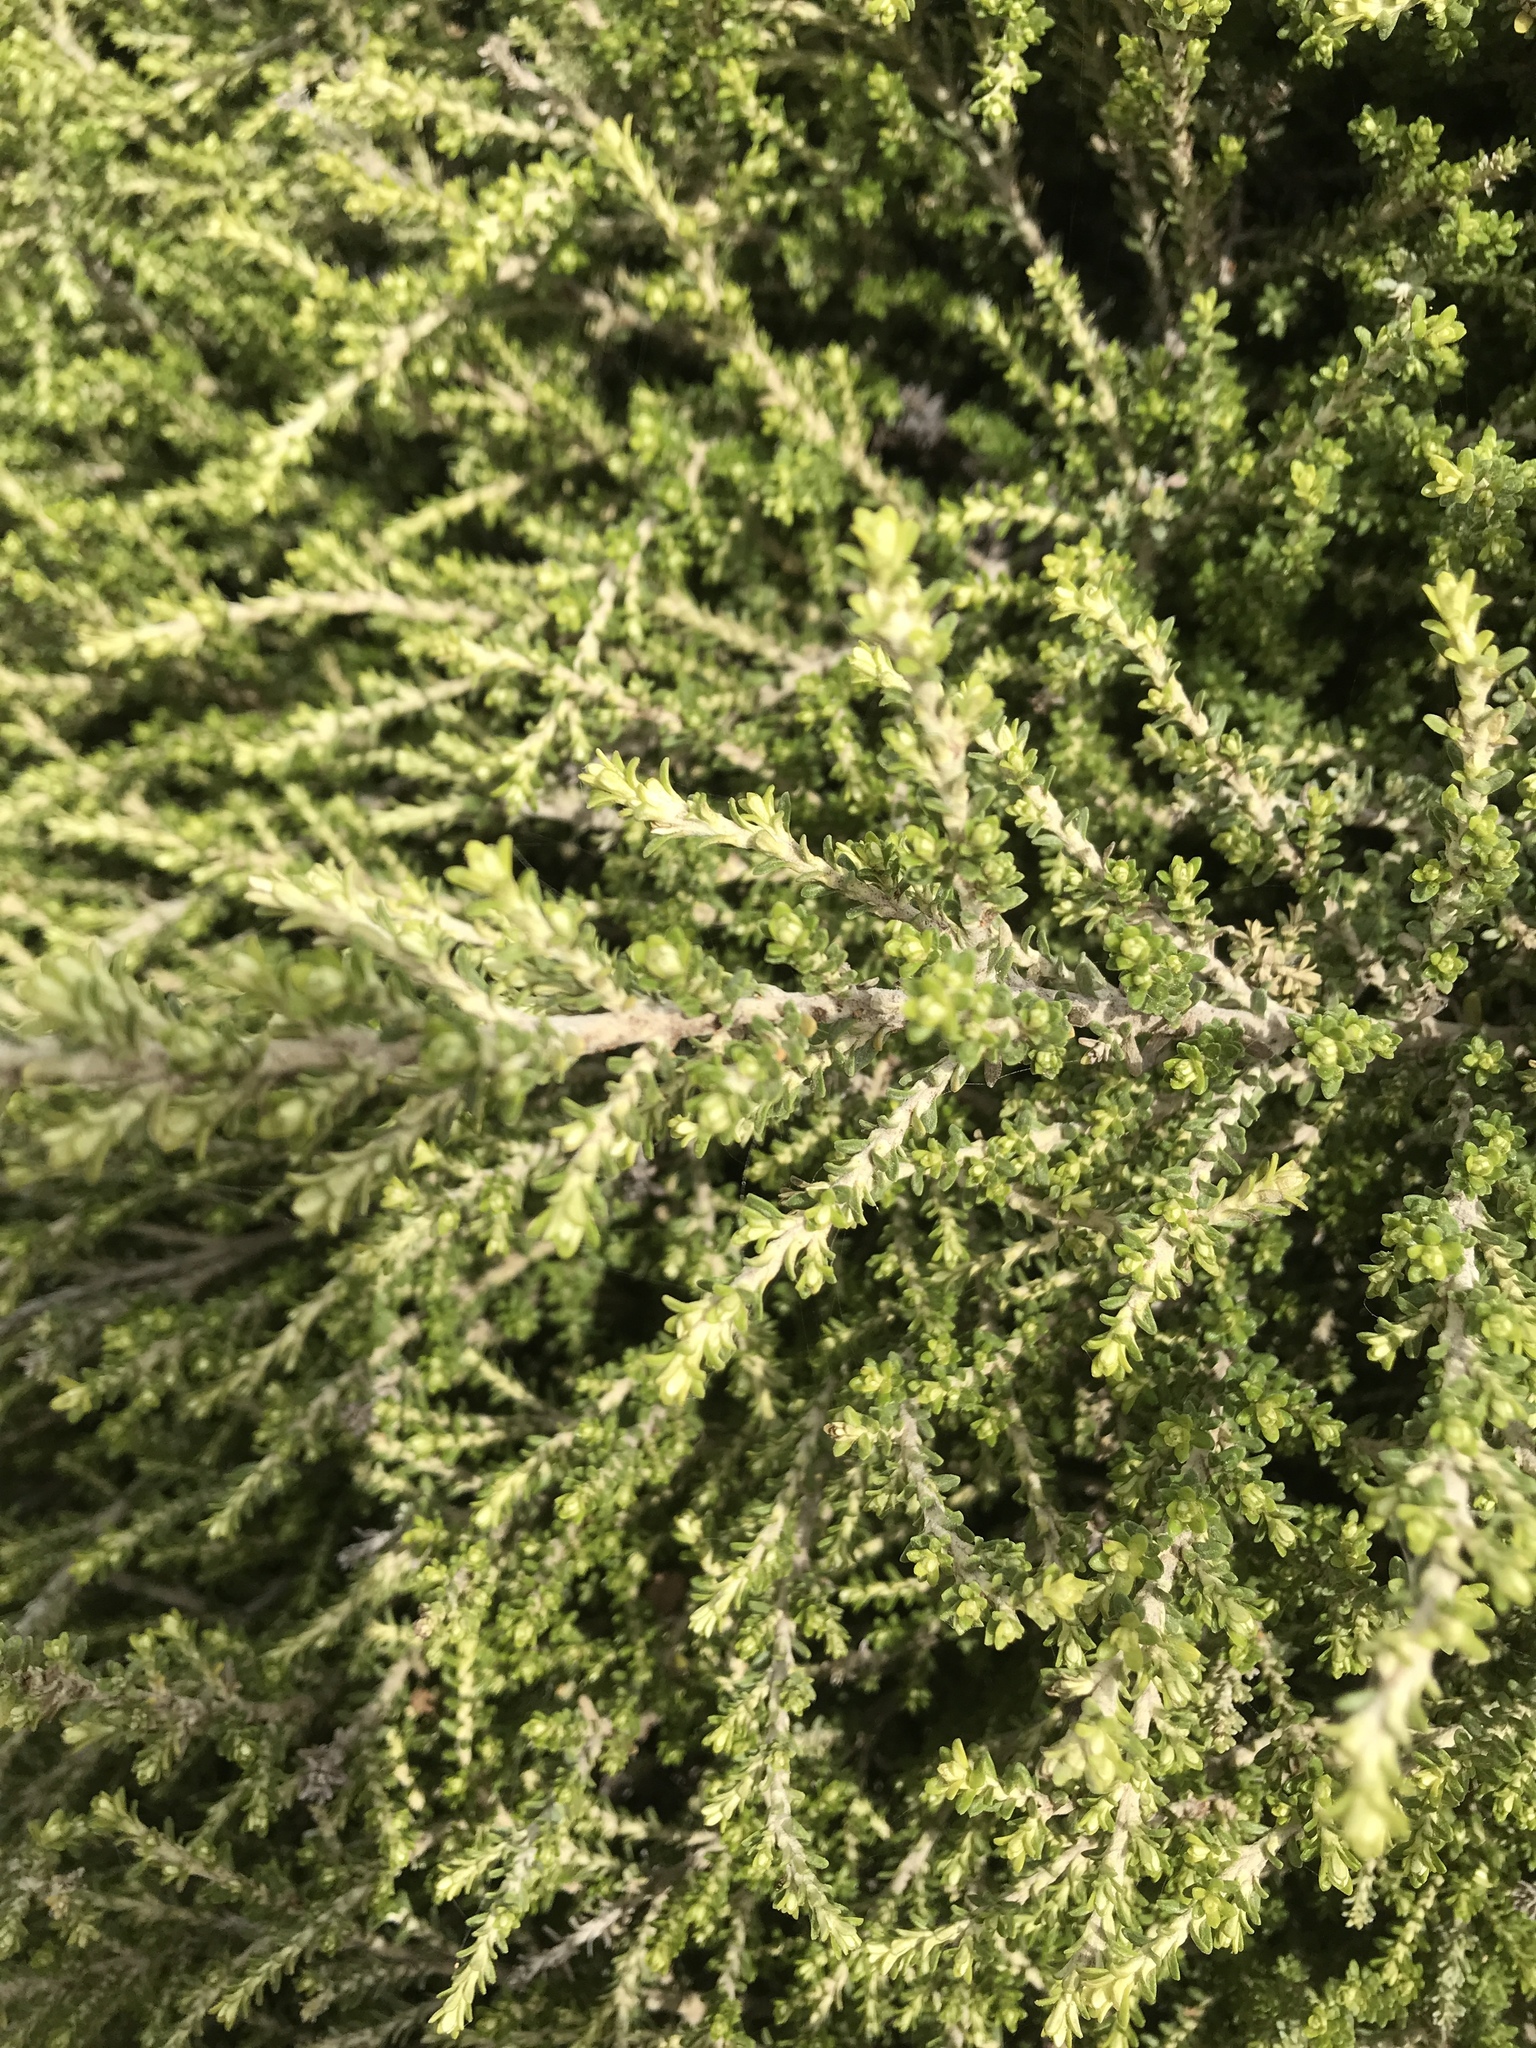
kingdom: Plantae
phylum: Tracheophyta
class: Magnoliopsida
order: Asterales
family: Asteraceae
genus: Ozothamnus
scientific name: Ozothamnus leptophyllus
